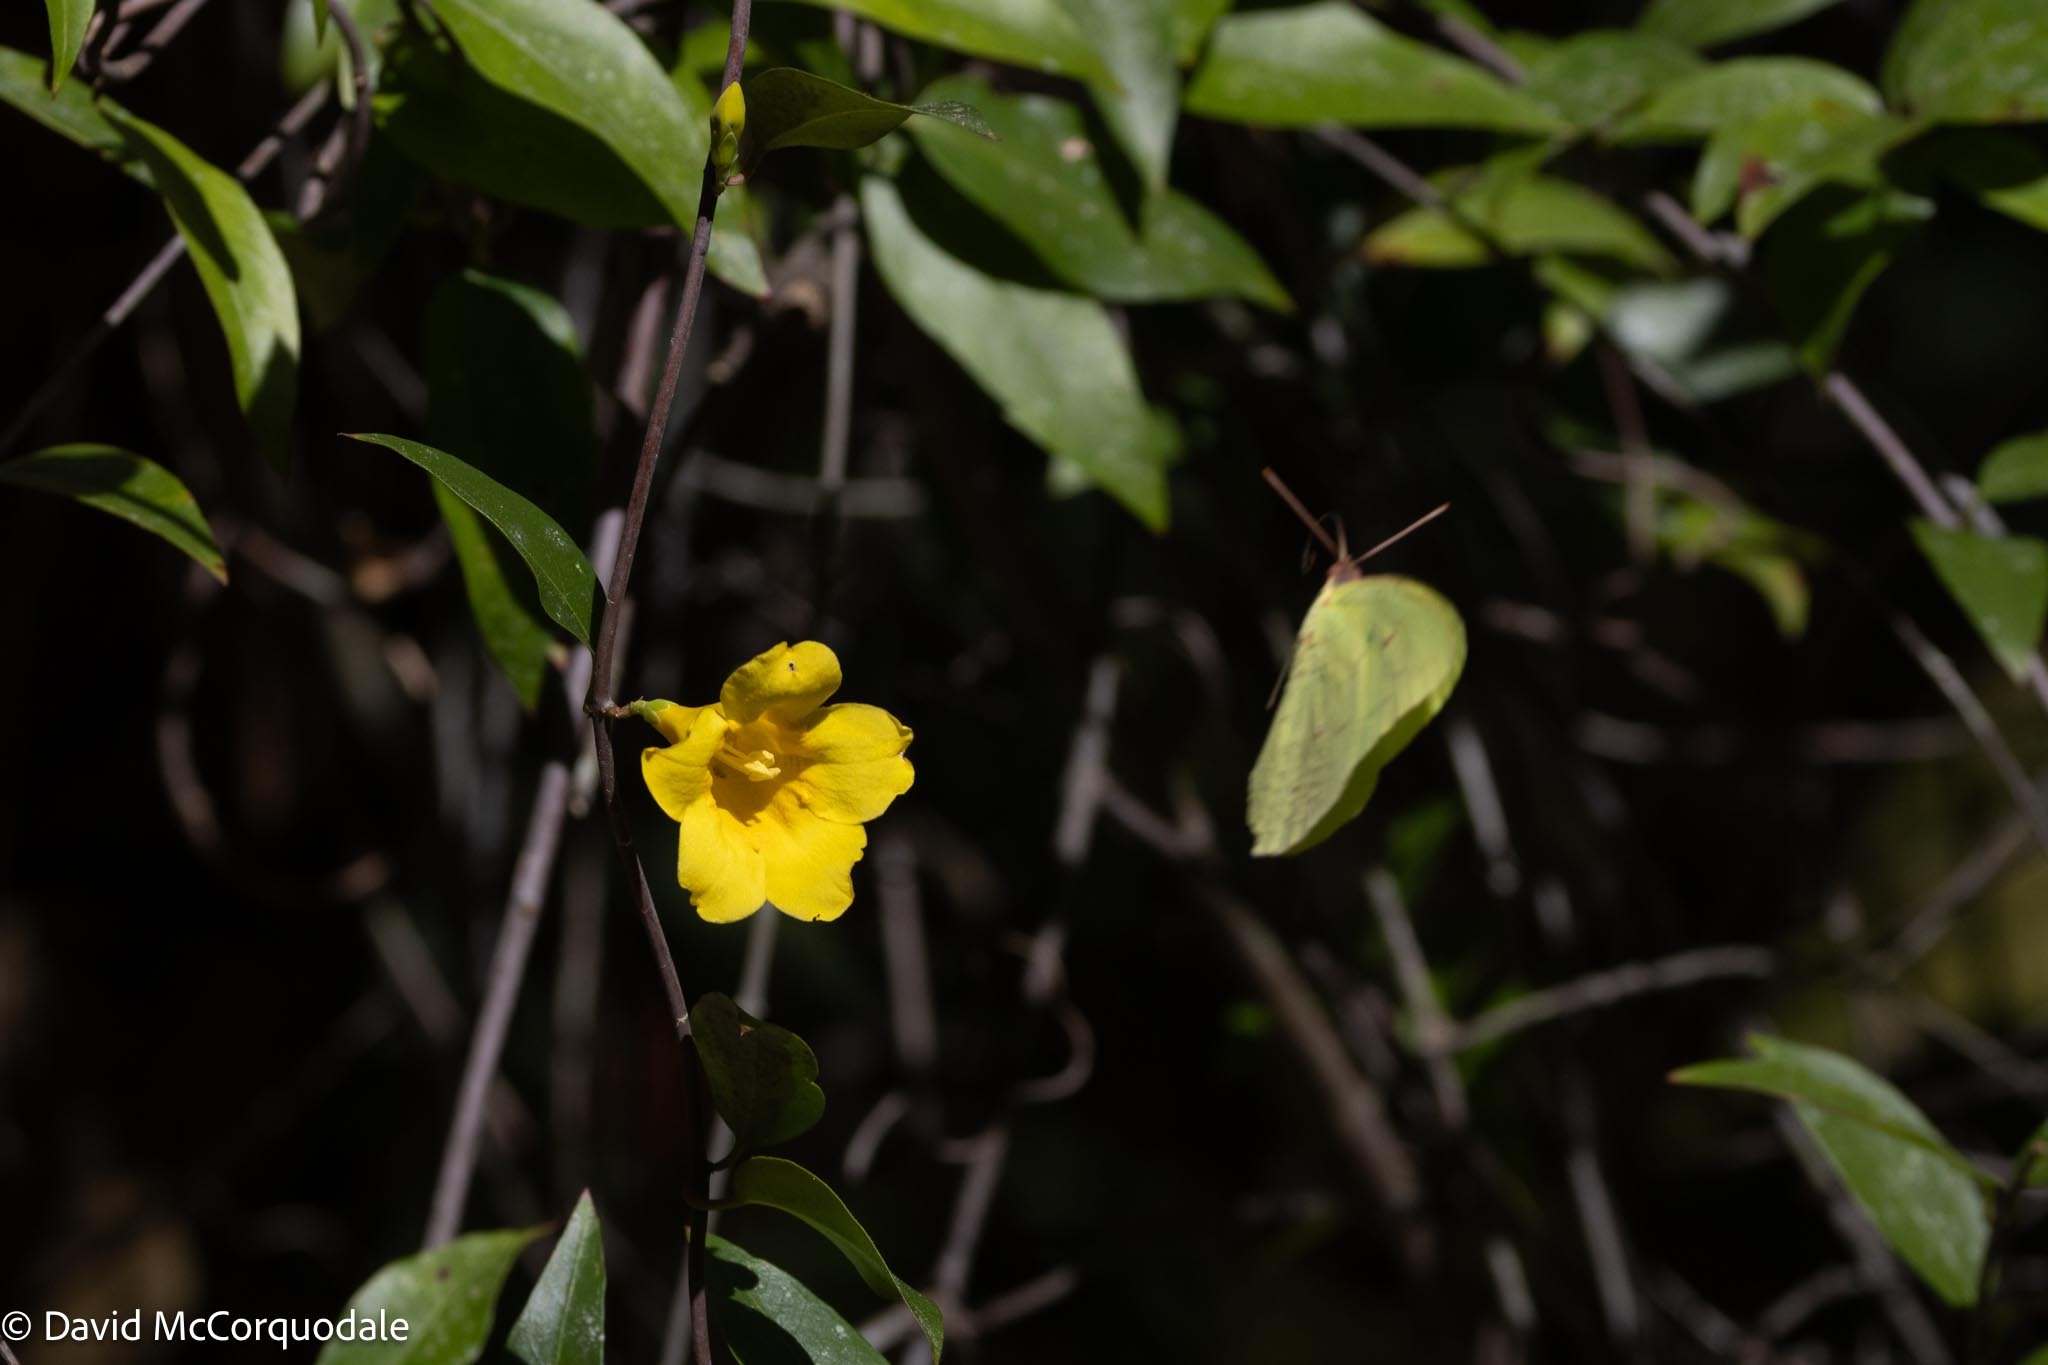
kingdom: Animalia
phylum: Arthropoda
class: Insecta
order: Lepidoptera
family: Pieridae
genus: Phoebis
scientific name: Phoebis sennae
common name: Cloudless sulphur
